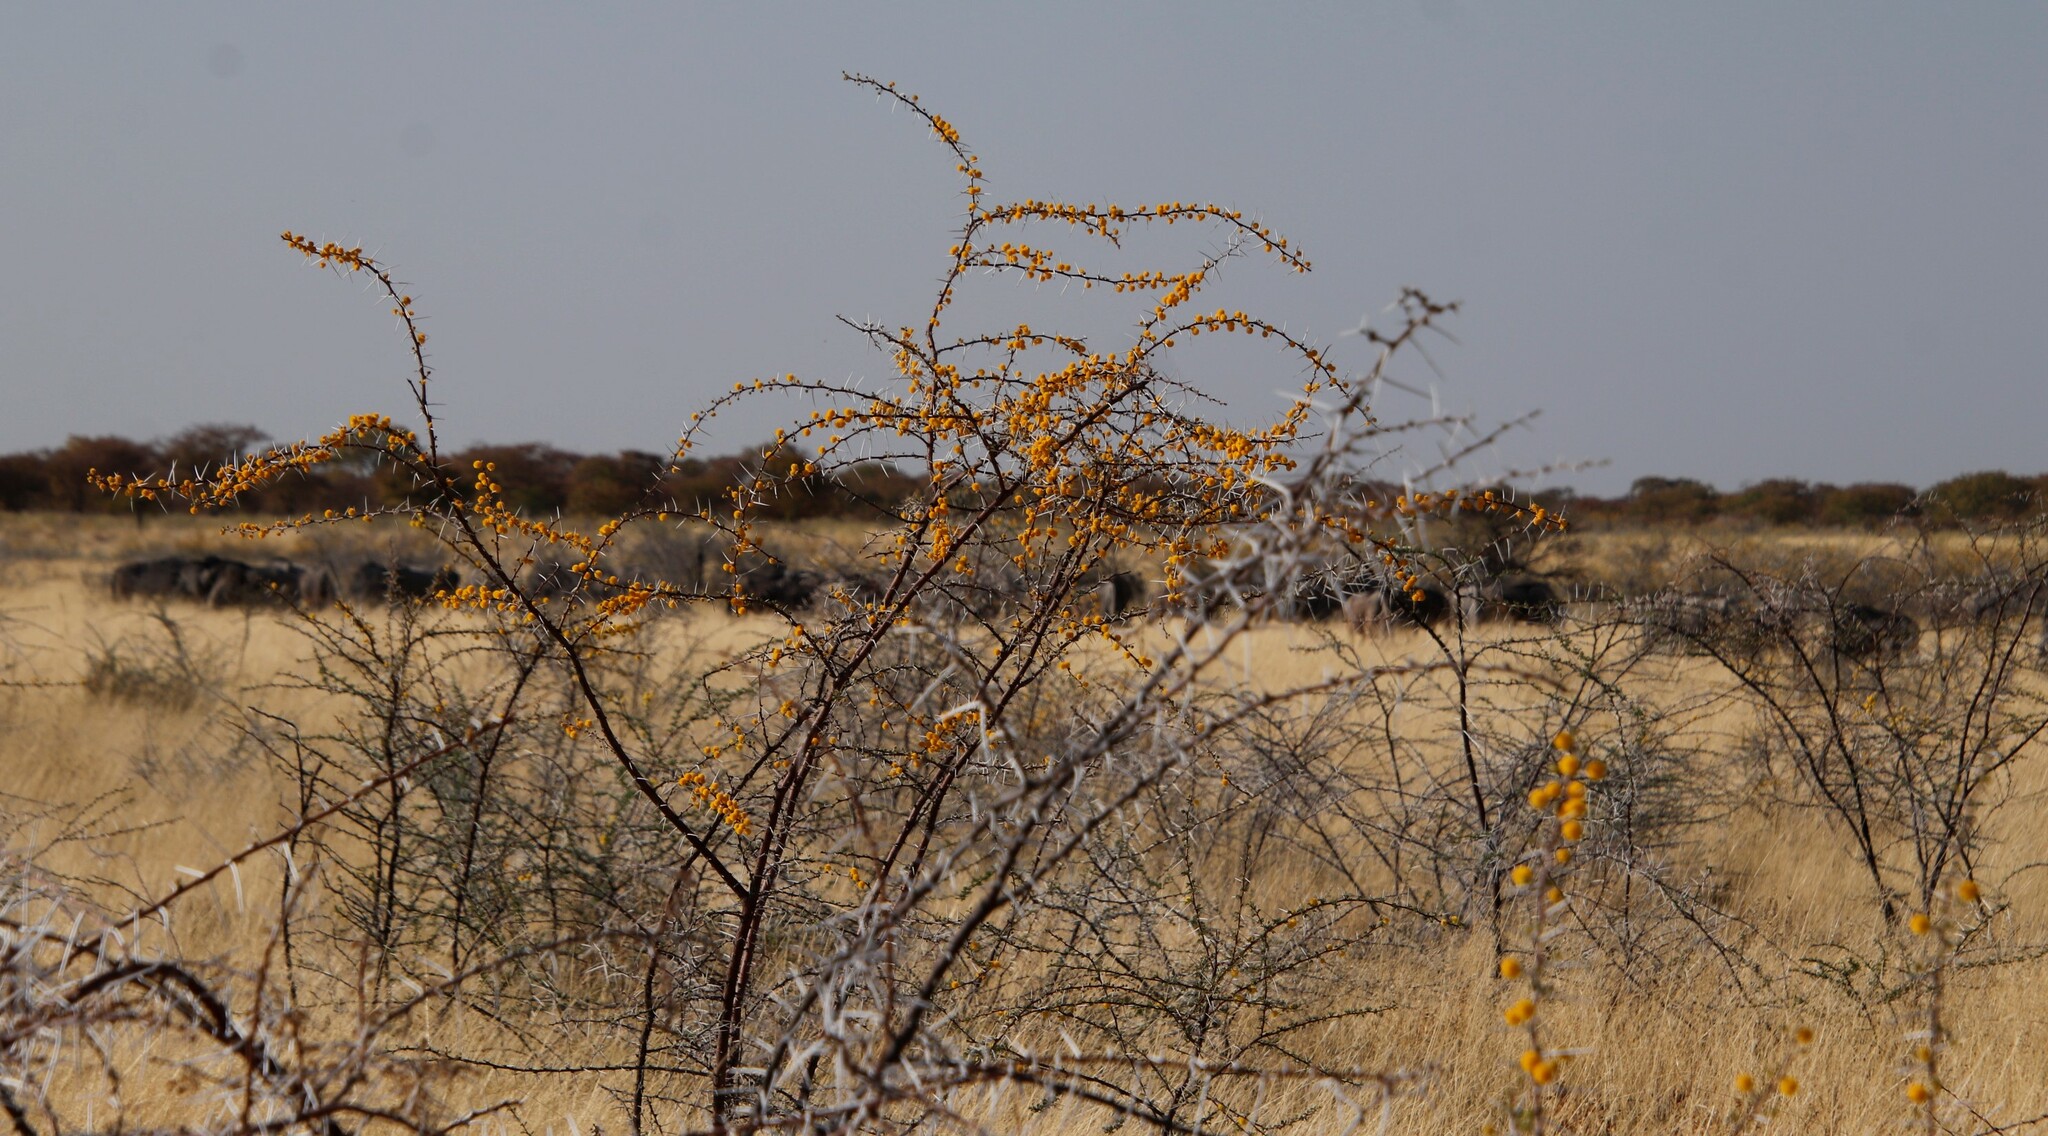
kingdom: Plantae
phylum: Tracheophyta
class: Magnoliopsida
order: Fabales
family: Fabaceae
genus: Vachellia
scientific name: Vachellia nebrownii
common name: Water acacia
